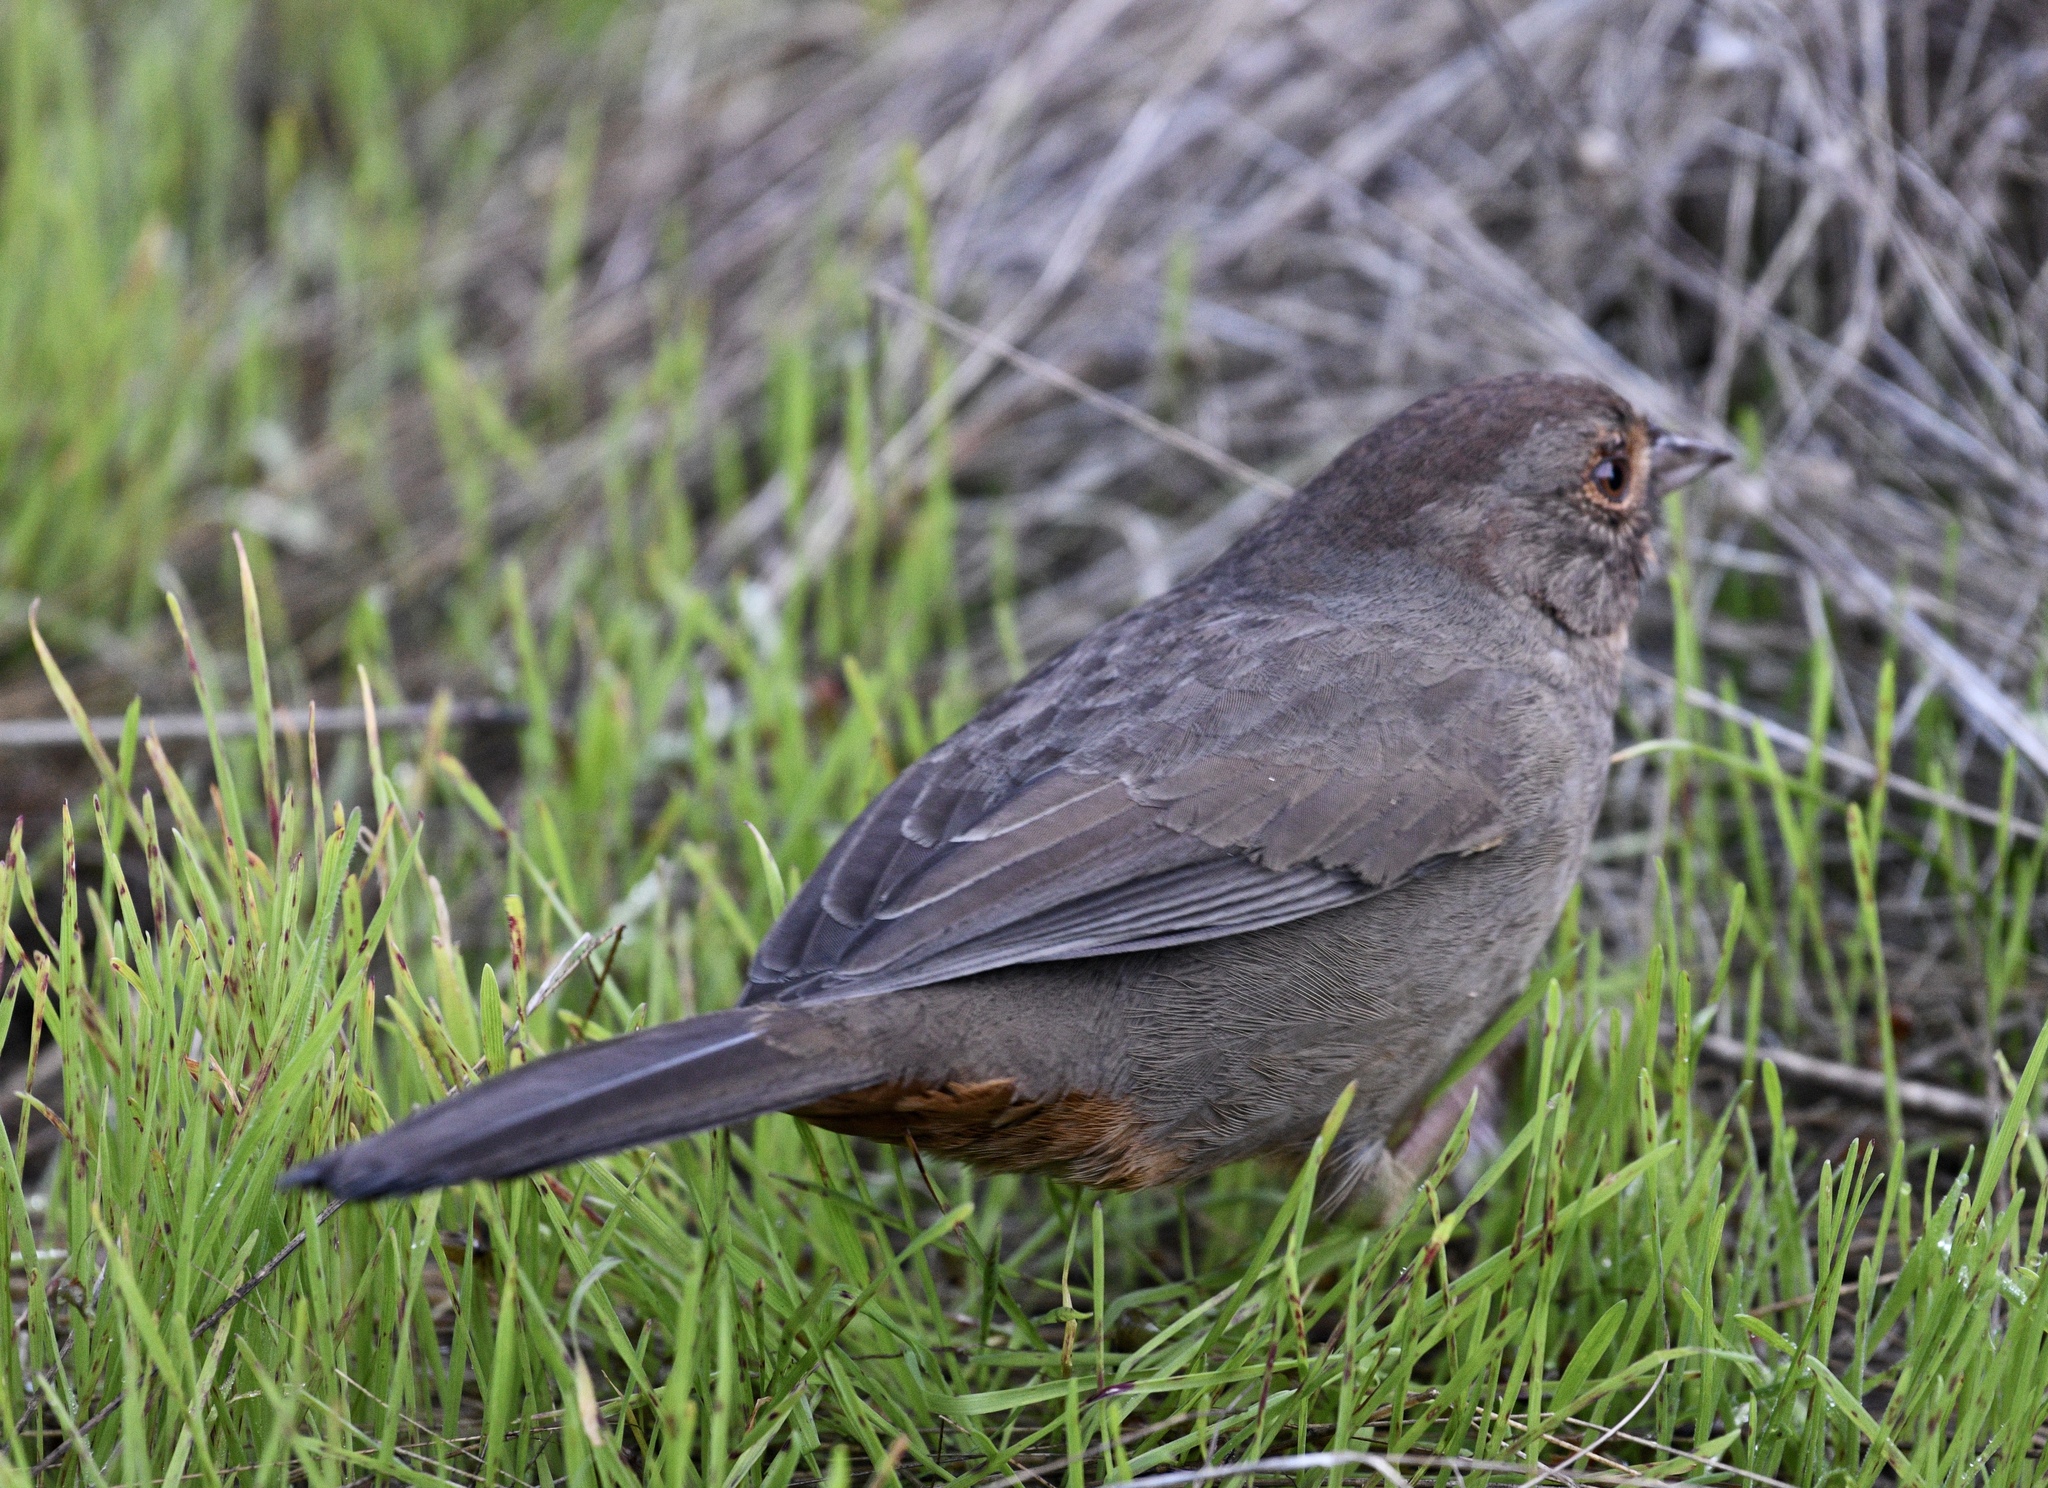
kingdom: Animalia
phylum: Chordata
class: Aves
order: Passeriformes
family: Passerellidae
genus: Melozone
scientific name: Melozone crissalis
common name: California towhee
